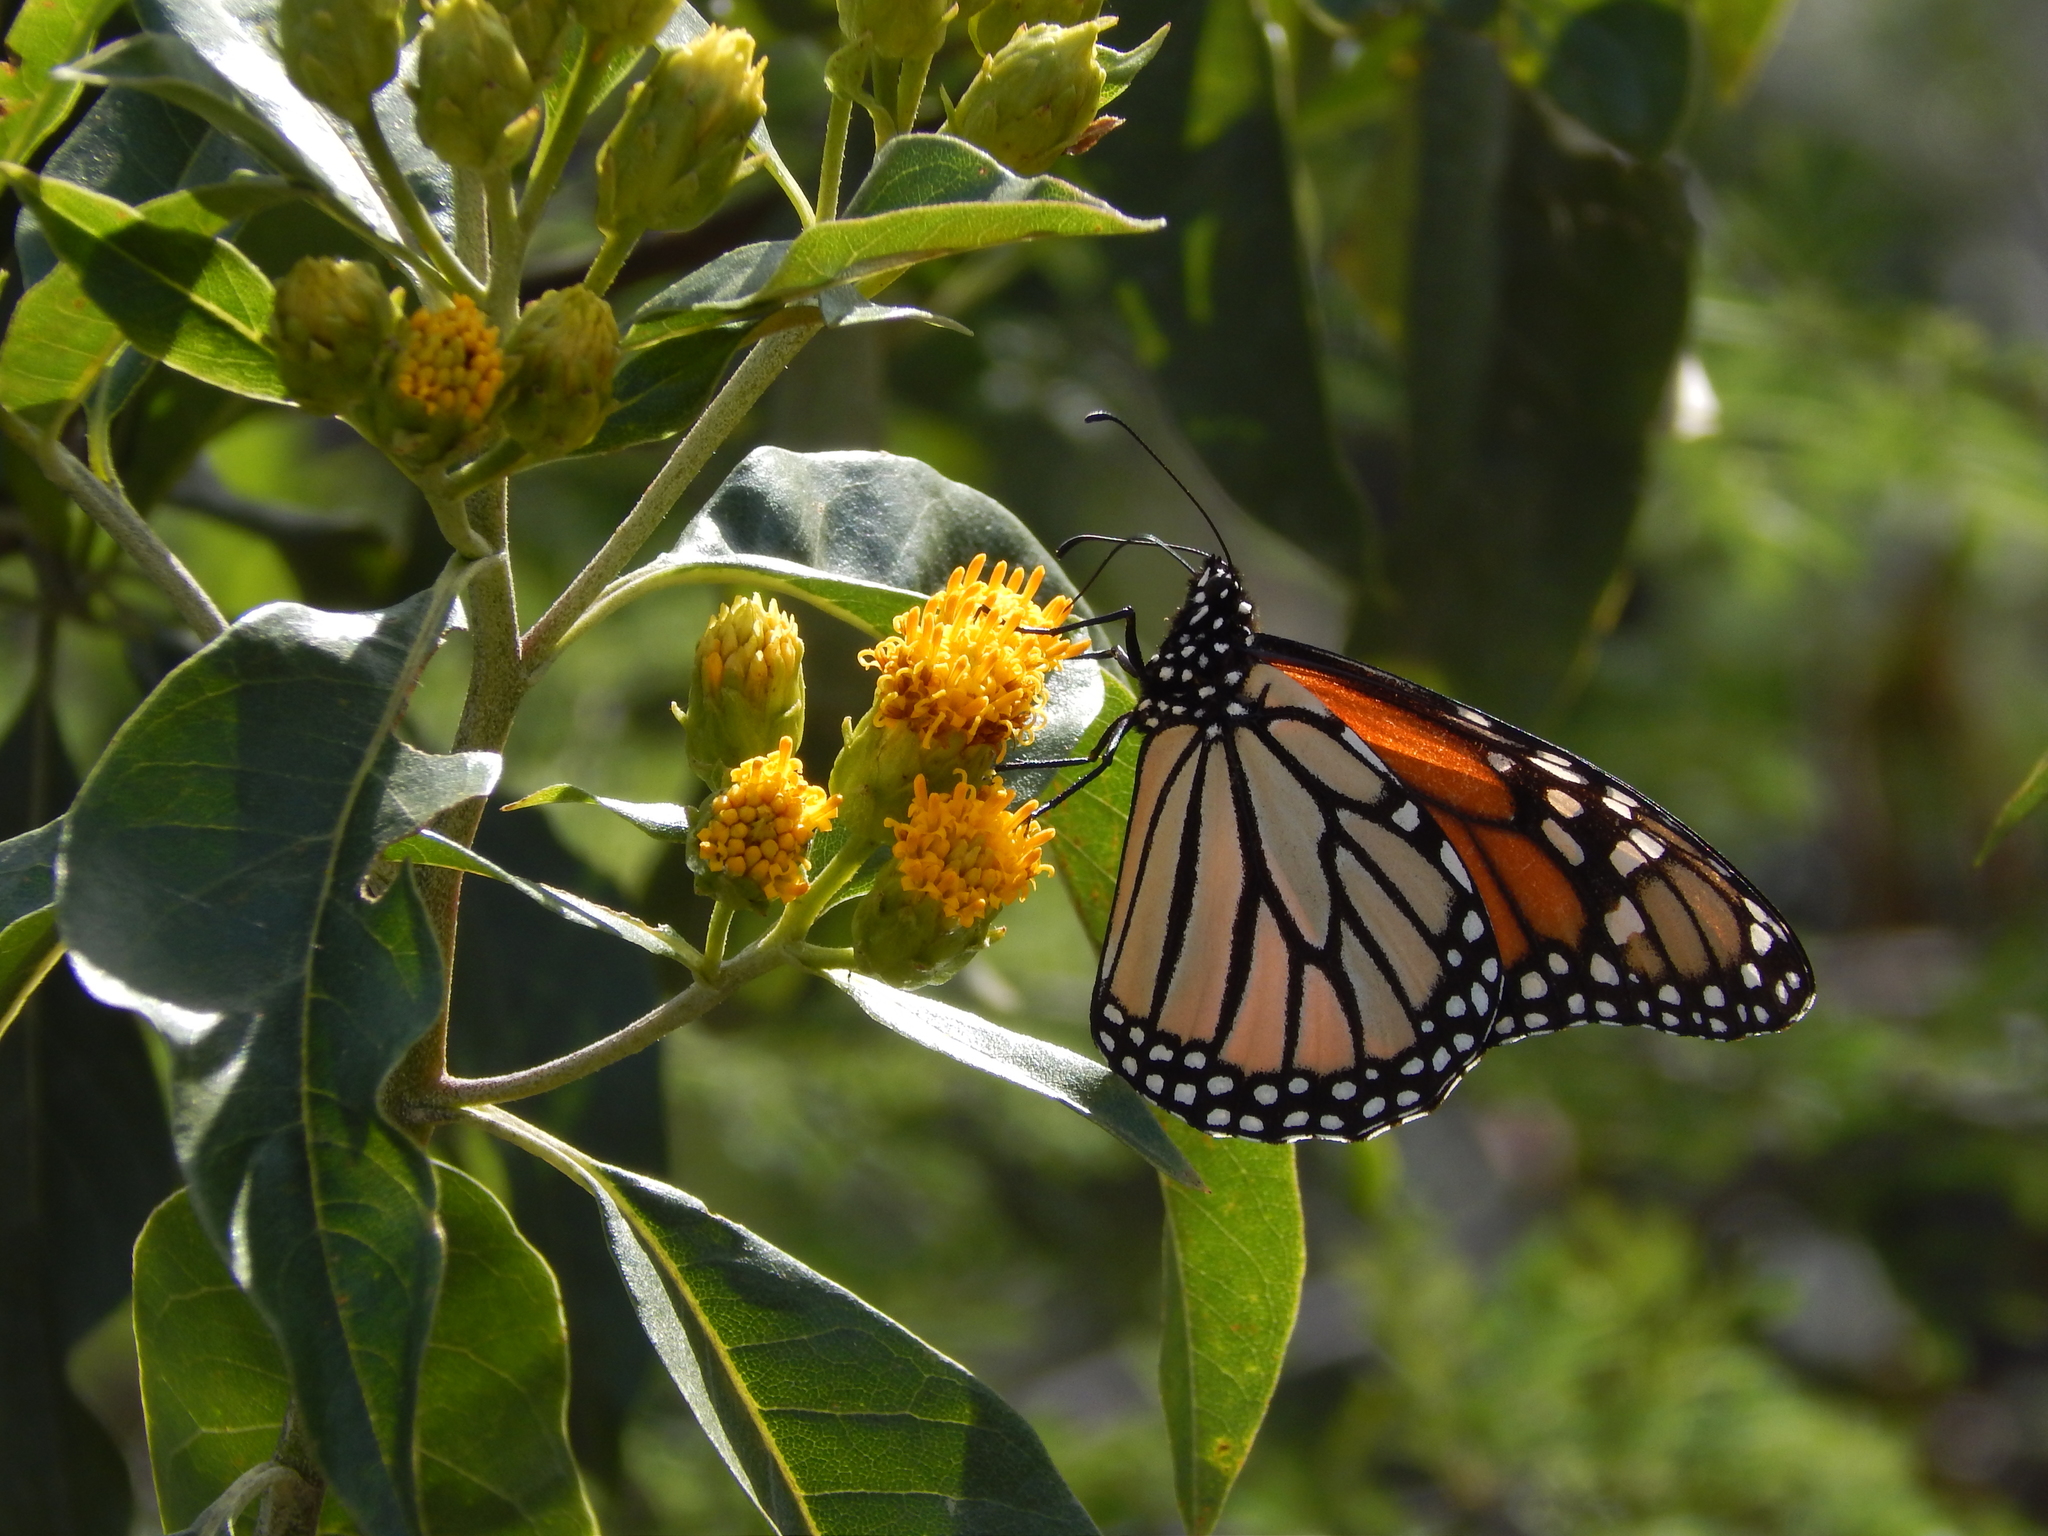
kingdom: Animalia
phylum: Arthropoda
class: Insecta
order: Lepidoptera
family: Nymphalidae
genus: Danaus
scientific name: Danaus plexippus
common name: Monarch
